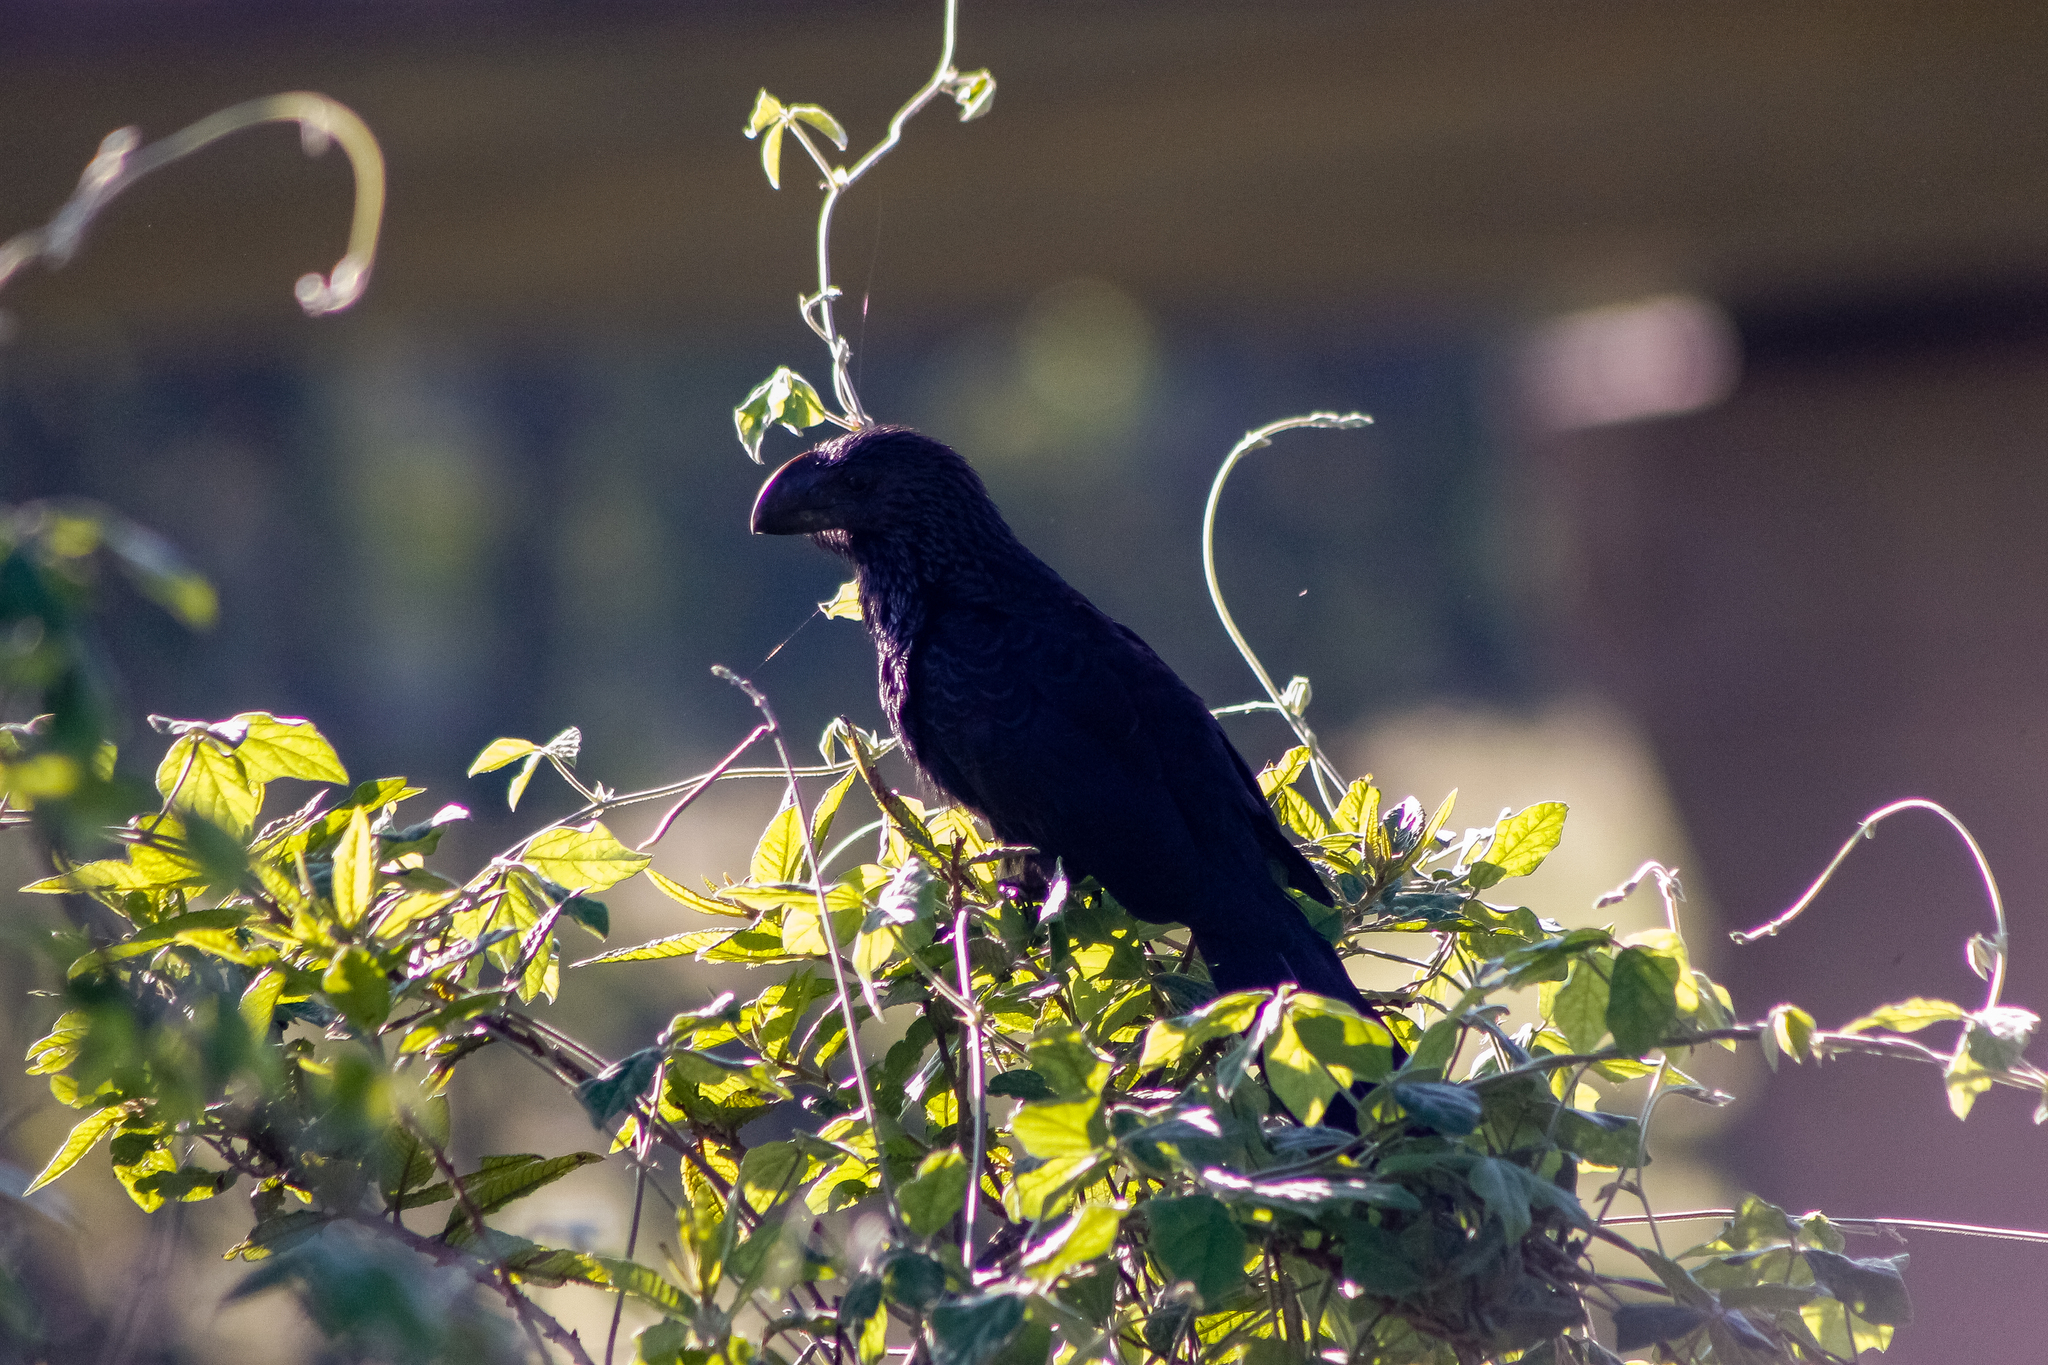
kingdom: Animalia
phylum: Chordata
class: Aves
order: Cuculiformes
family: Cuculidae
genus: Crotophaga
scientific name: Crotophaga ani
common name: Smooth-billed ani
